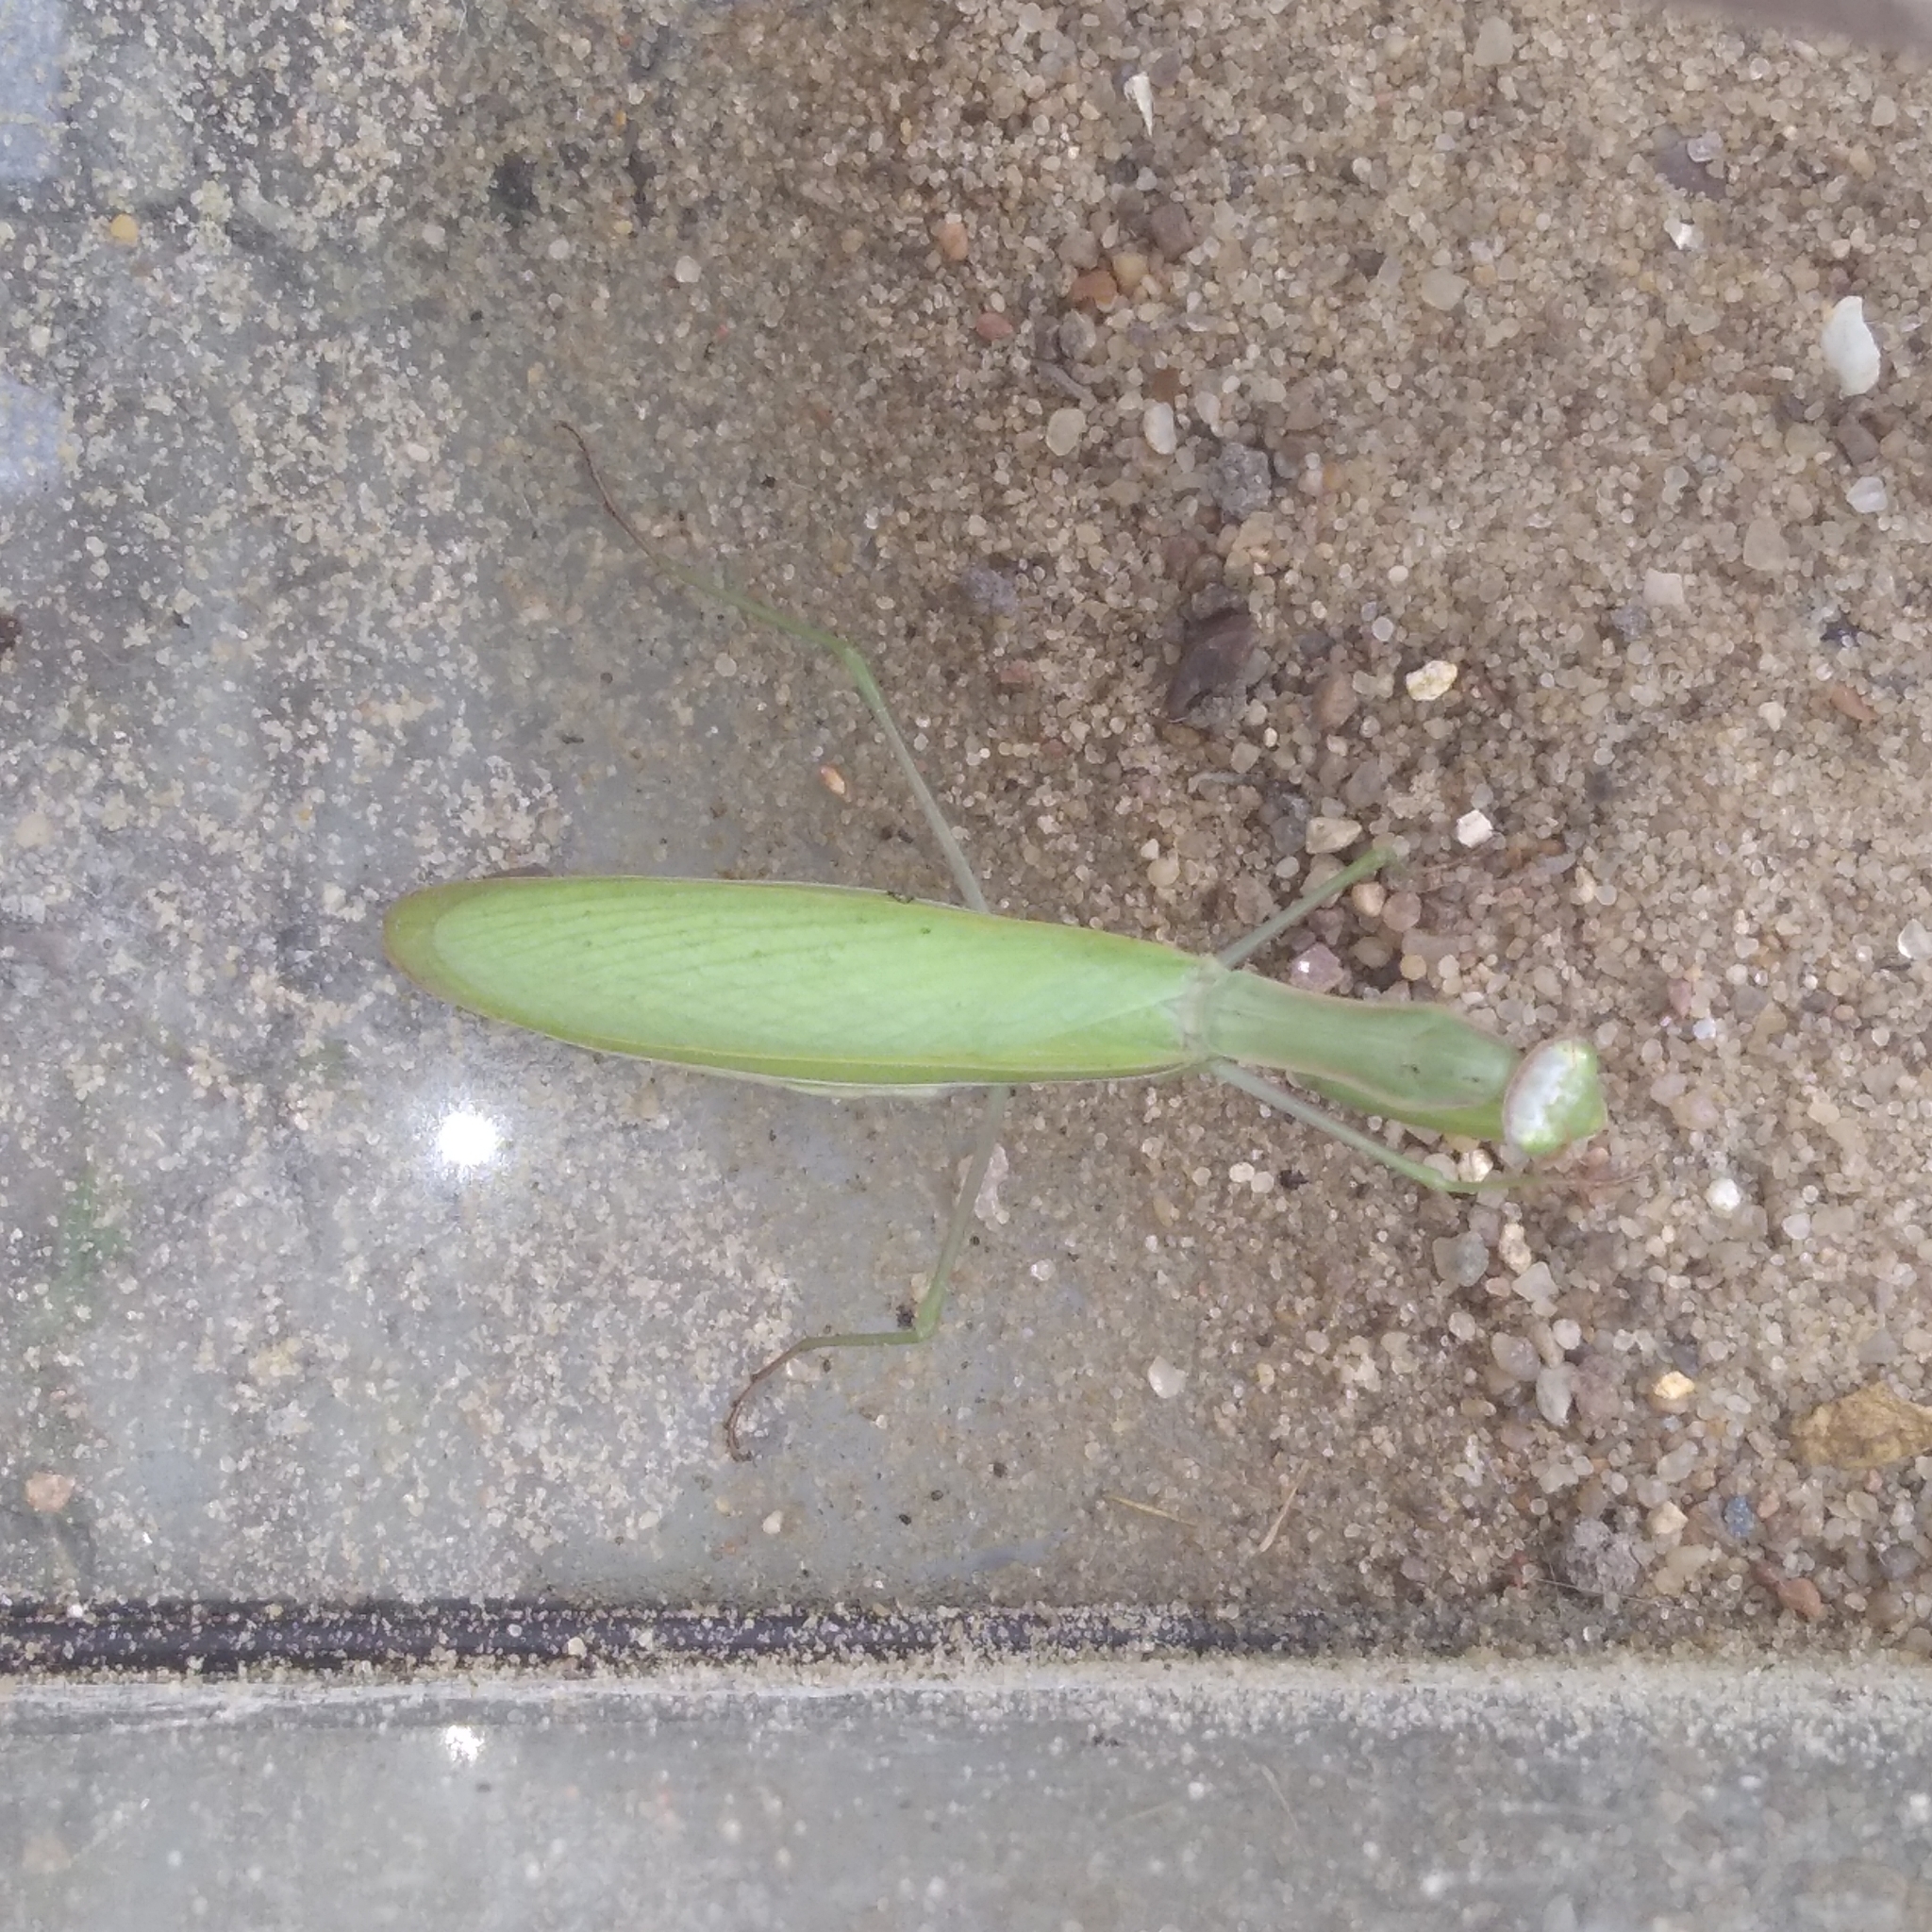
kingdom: Animalia
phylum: Arthropoda
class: Insecta
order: Mantodea
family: Mantidae
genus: Mantis
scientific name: Mantis religiosa
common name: Praying mantis
